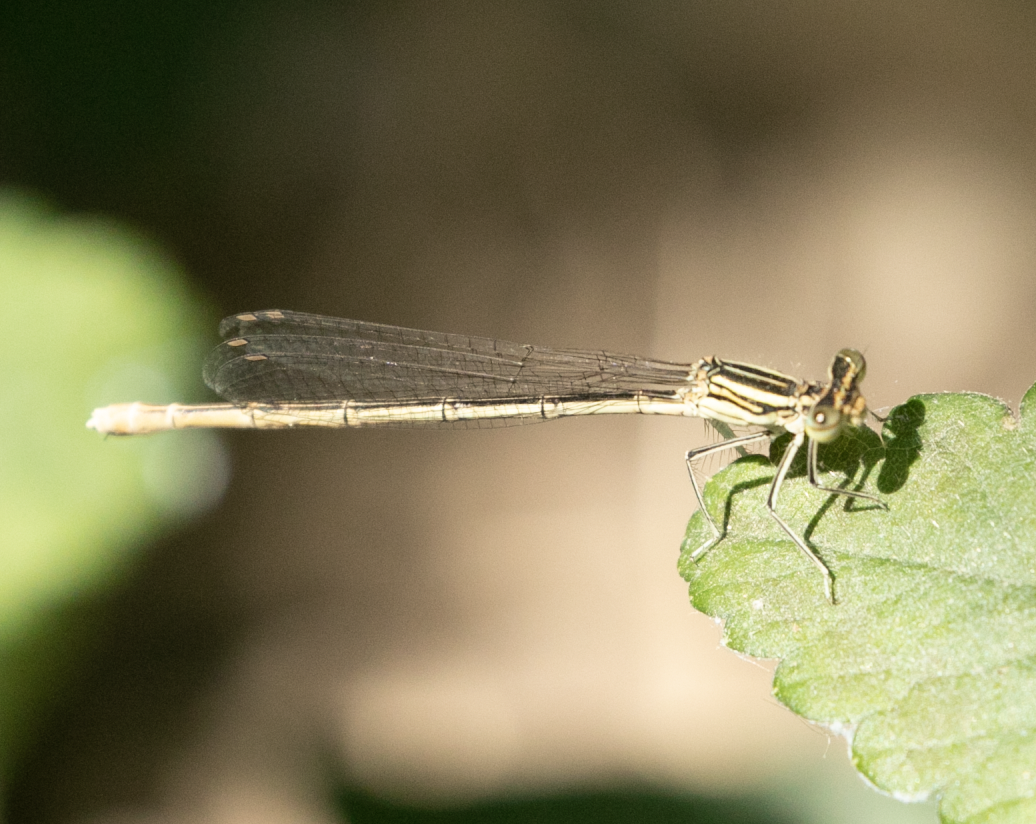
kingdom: Animalia
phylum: Arthropoda
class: Insecta
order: Odonata
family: Platycnemididae
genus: Platycnemis
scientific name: Platycnemis pennipes
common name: White-legged damselfly
